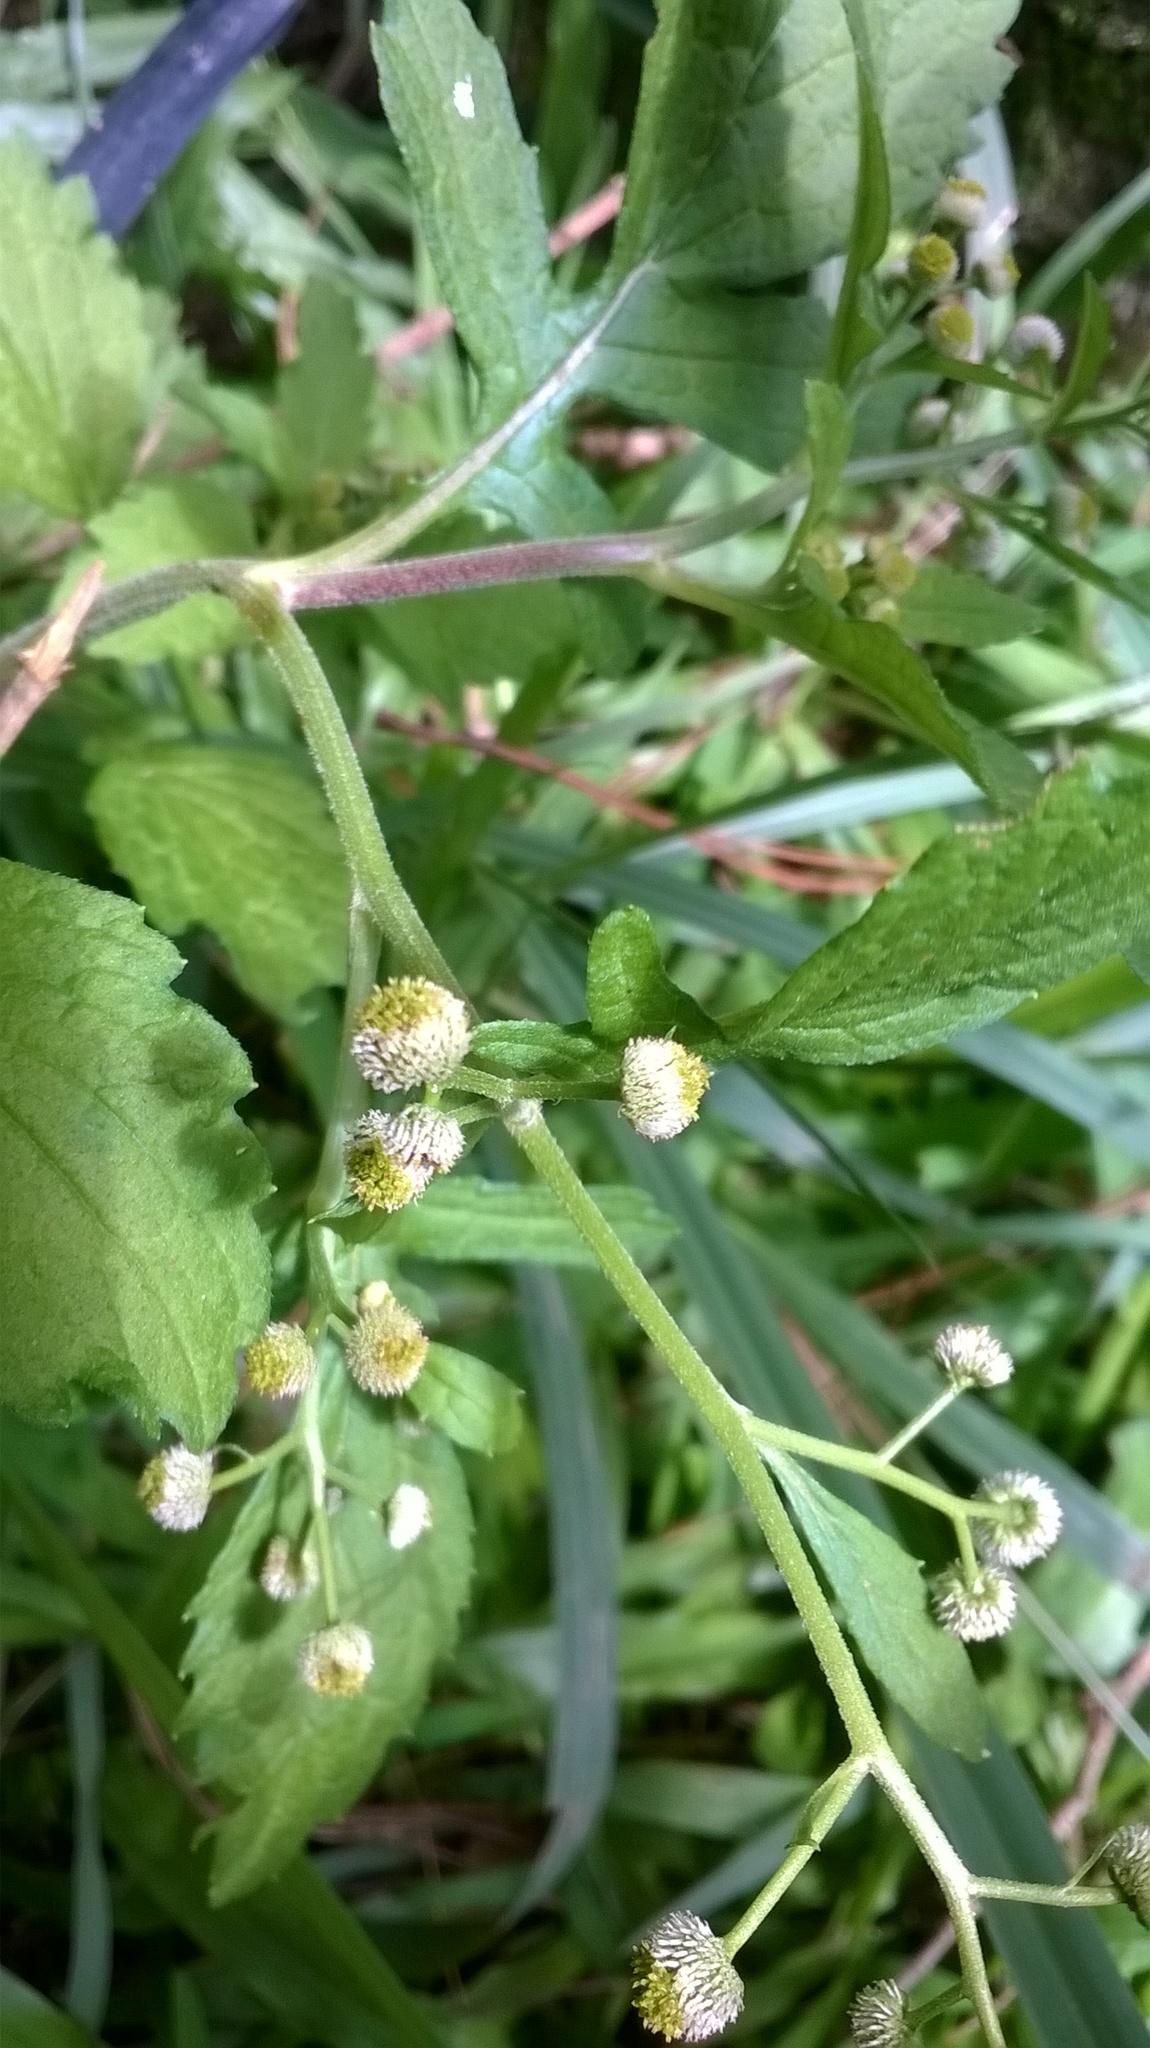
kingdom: Plantae
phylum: Tracheophyta
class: Magnoliopsida
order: Asterales
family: Asteraceae
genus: Dichrocephala
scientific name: Dichrocephala integrifolia
